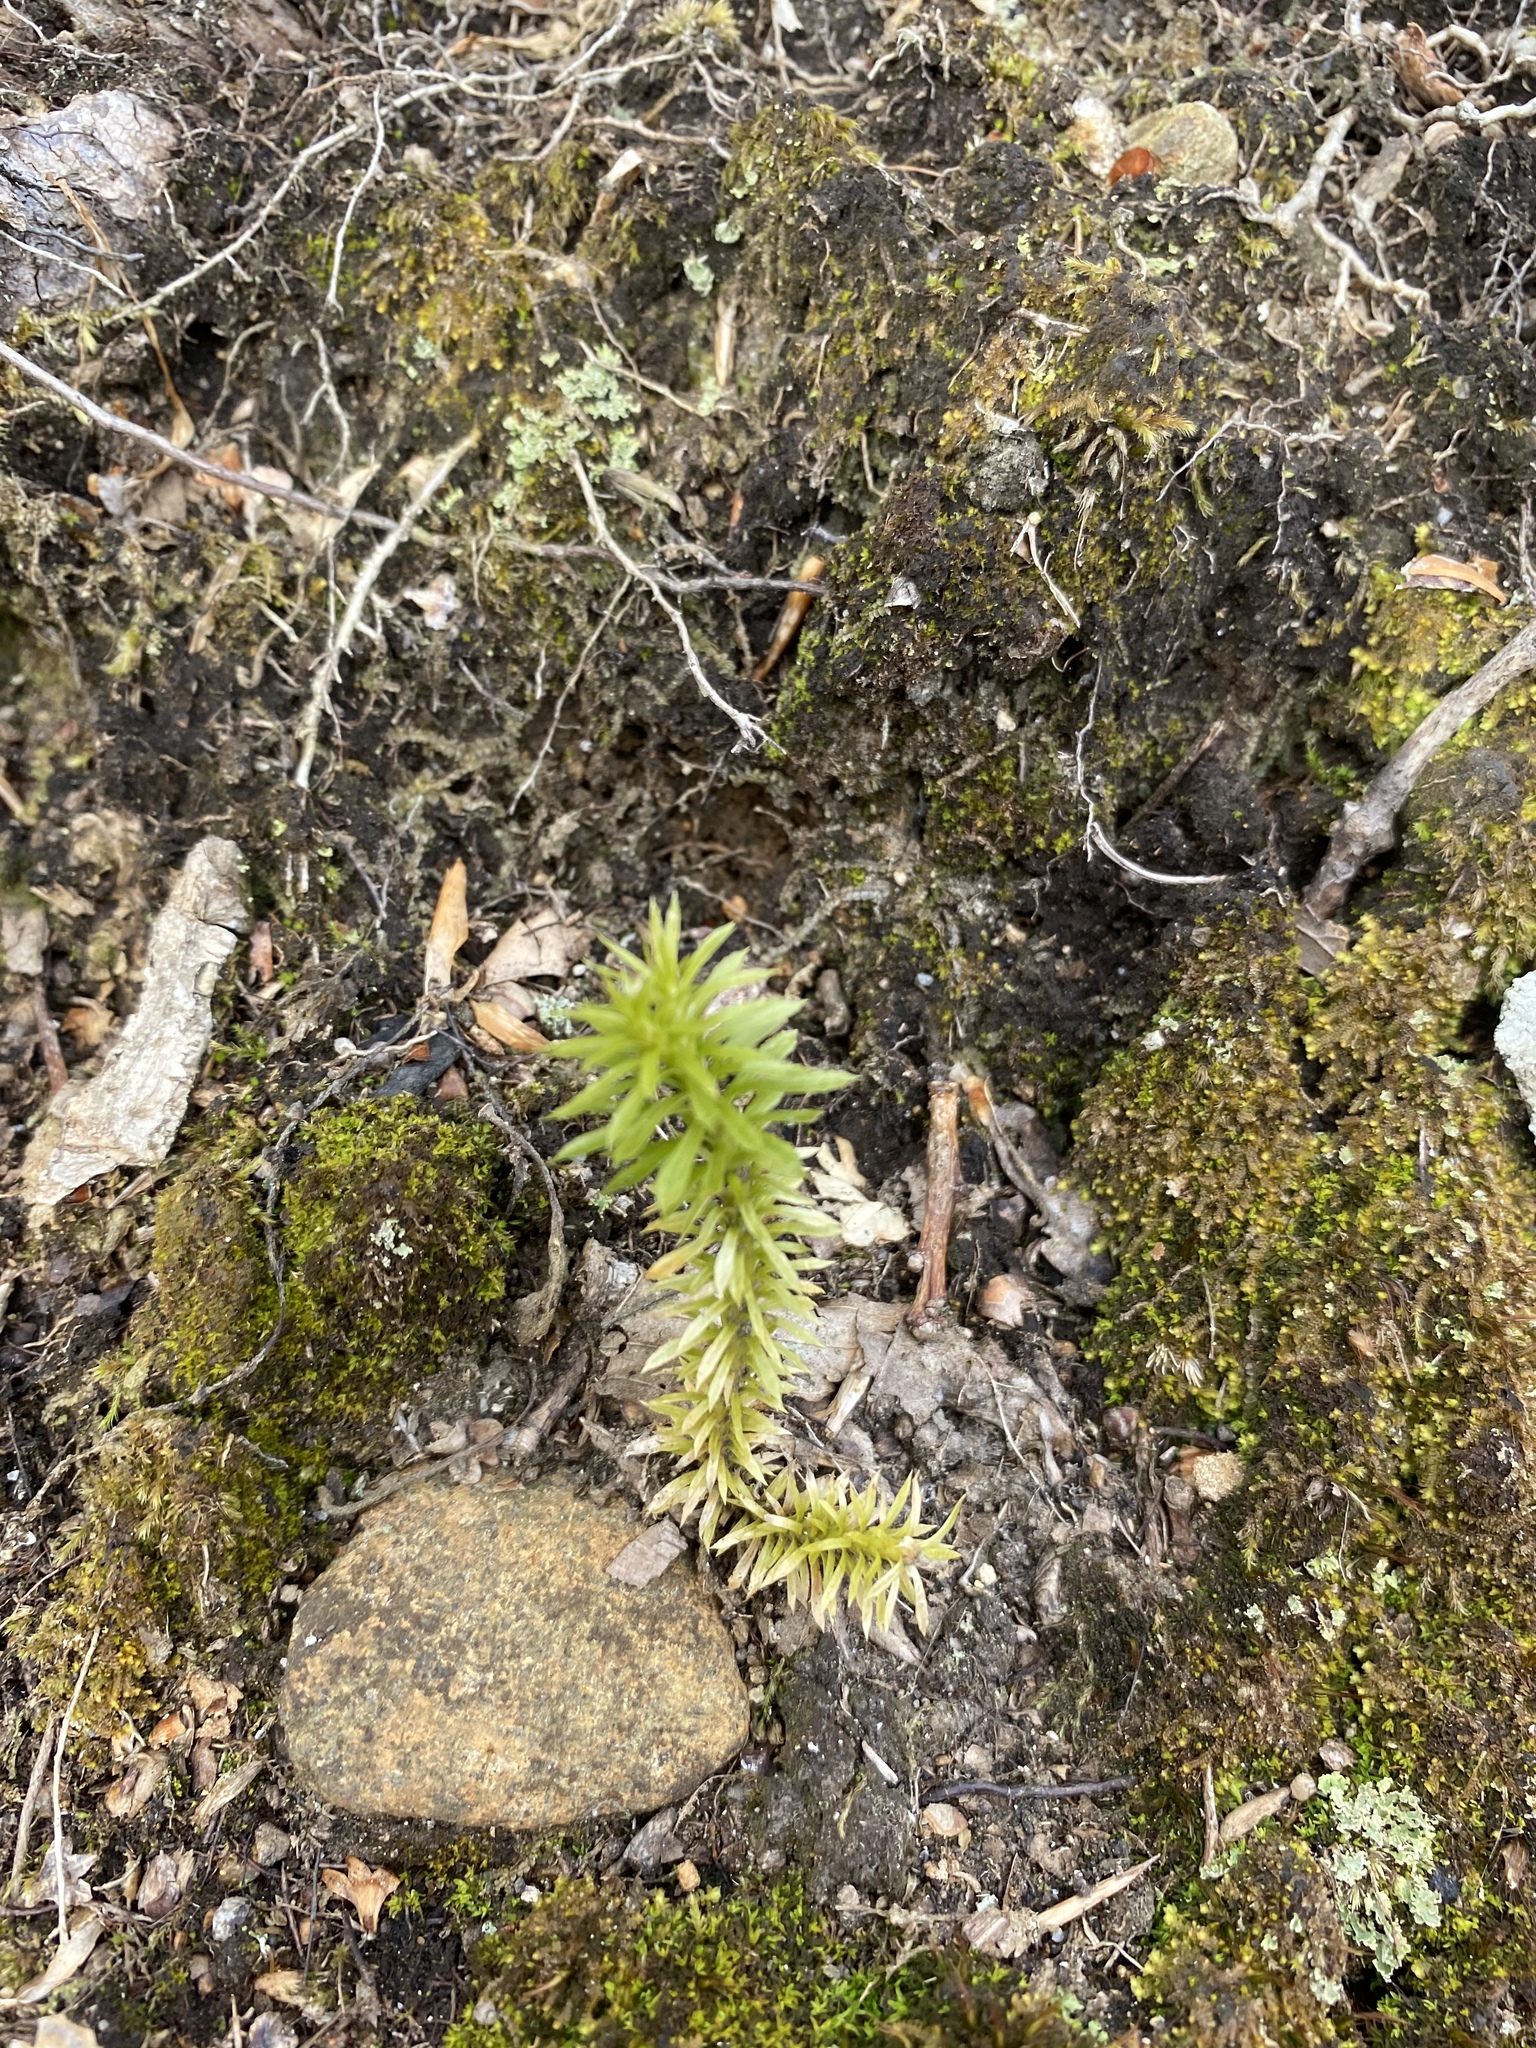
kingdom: Plantae
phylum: Tracheophyta
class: Lycopodiopsida
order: Lycopodiales
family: Lycopodiaceae
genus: Huperzia
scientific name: Huperzia lucidula
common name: Shining clubmoss
